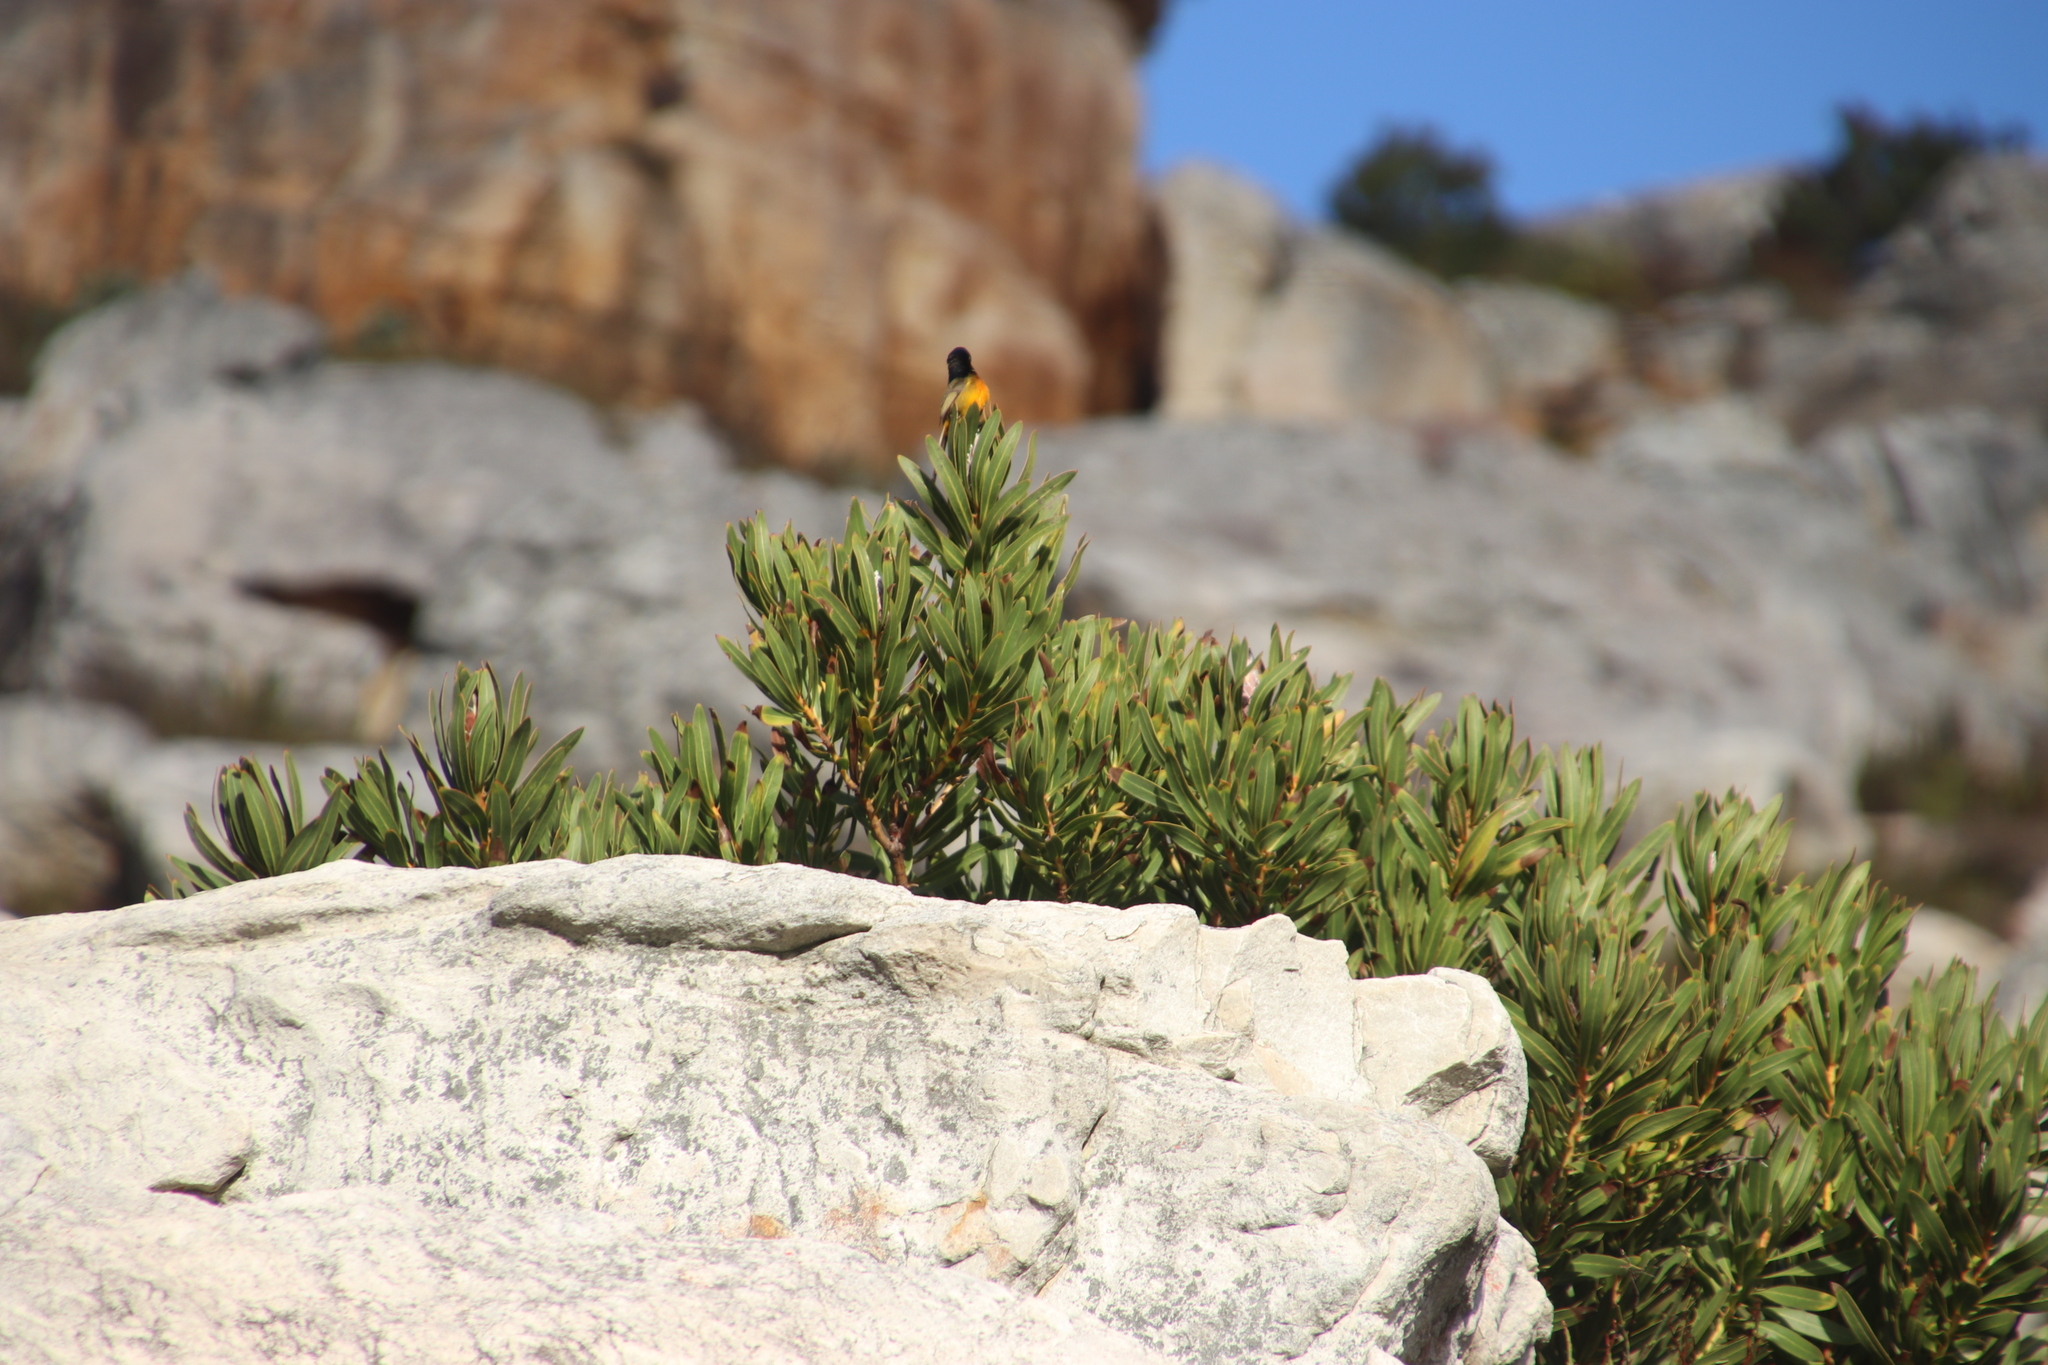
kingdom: Animalia
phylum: Chordata
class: Aves
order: Passeriformes
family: Nectariniidae
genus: Anthobaphes
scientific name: Anthobaphes violacea
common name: Orange-breasted sunbird
